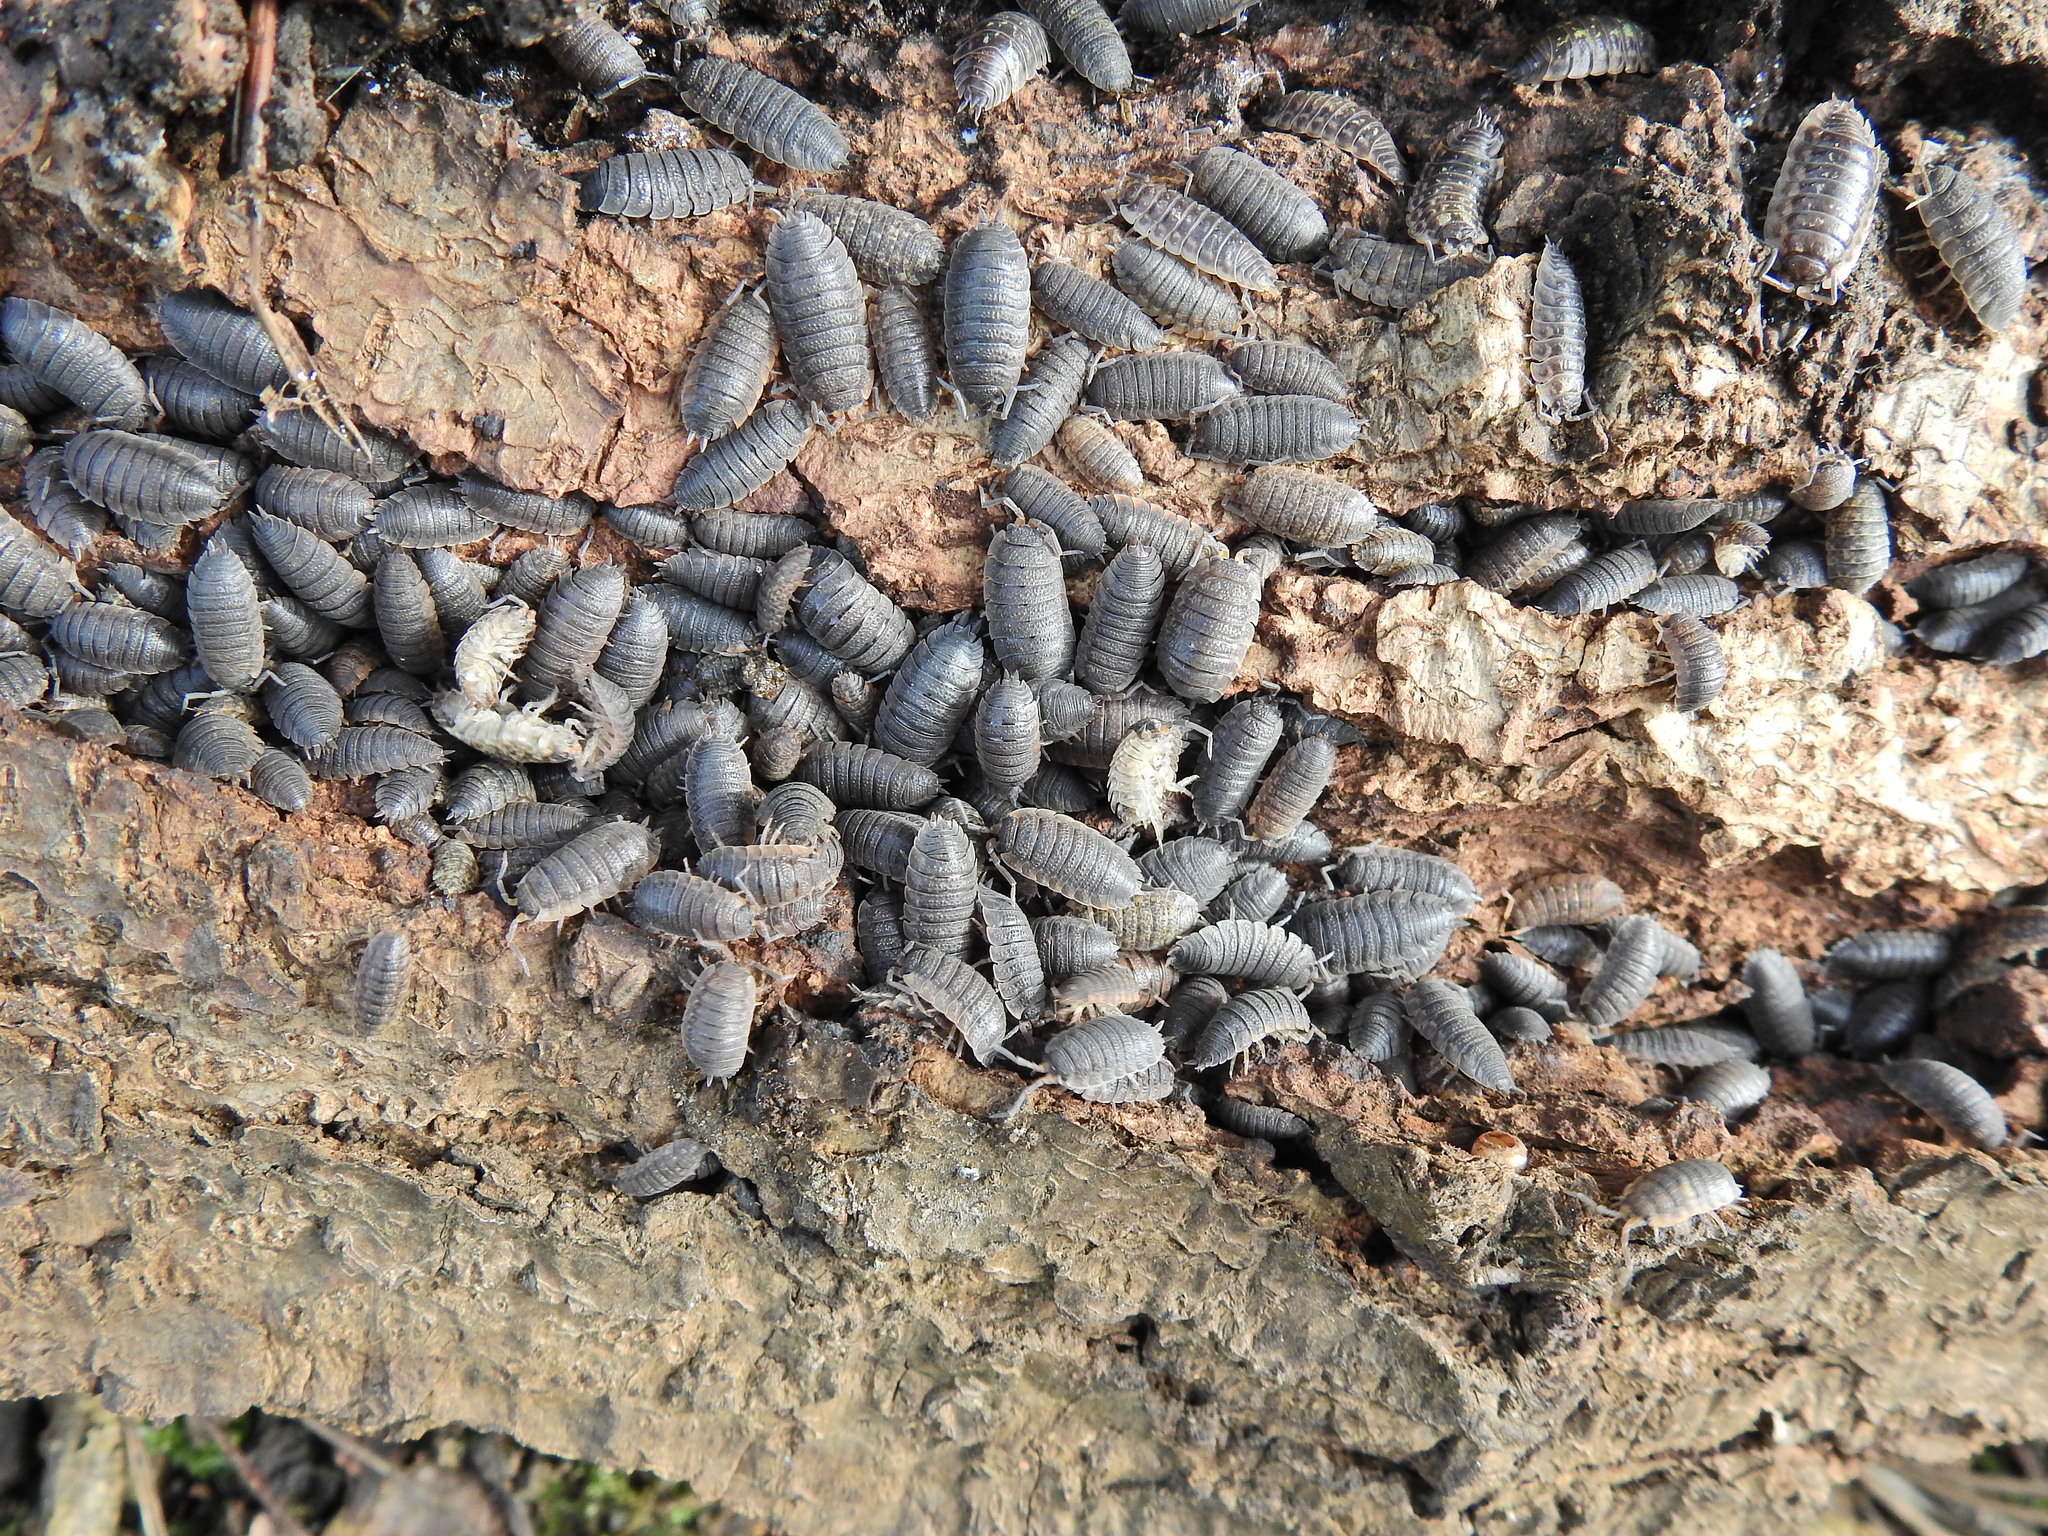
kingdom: Animalia
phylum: Arthropoda
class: Malacostraca
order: Isopoda
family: Porcellionidae
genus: Porcellio
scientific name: Porcellio scaber
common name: Common rough woodlouse
